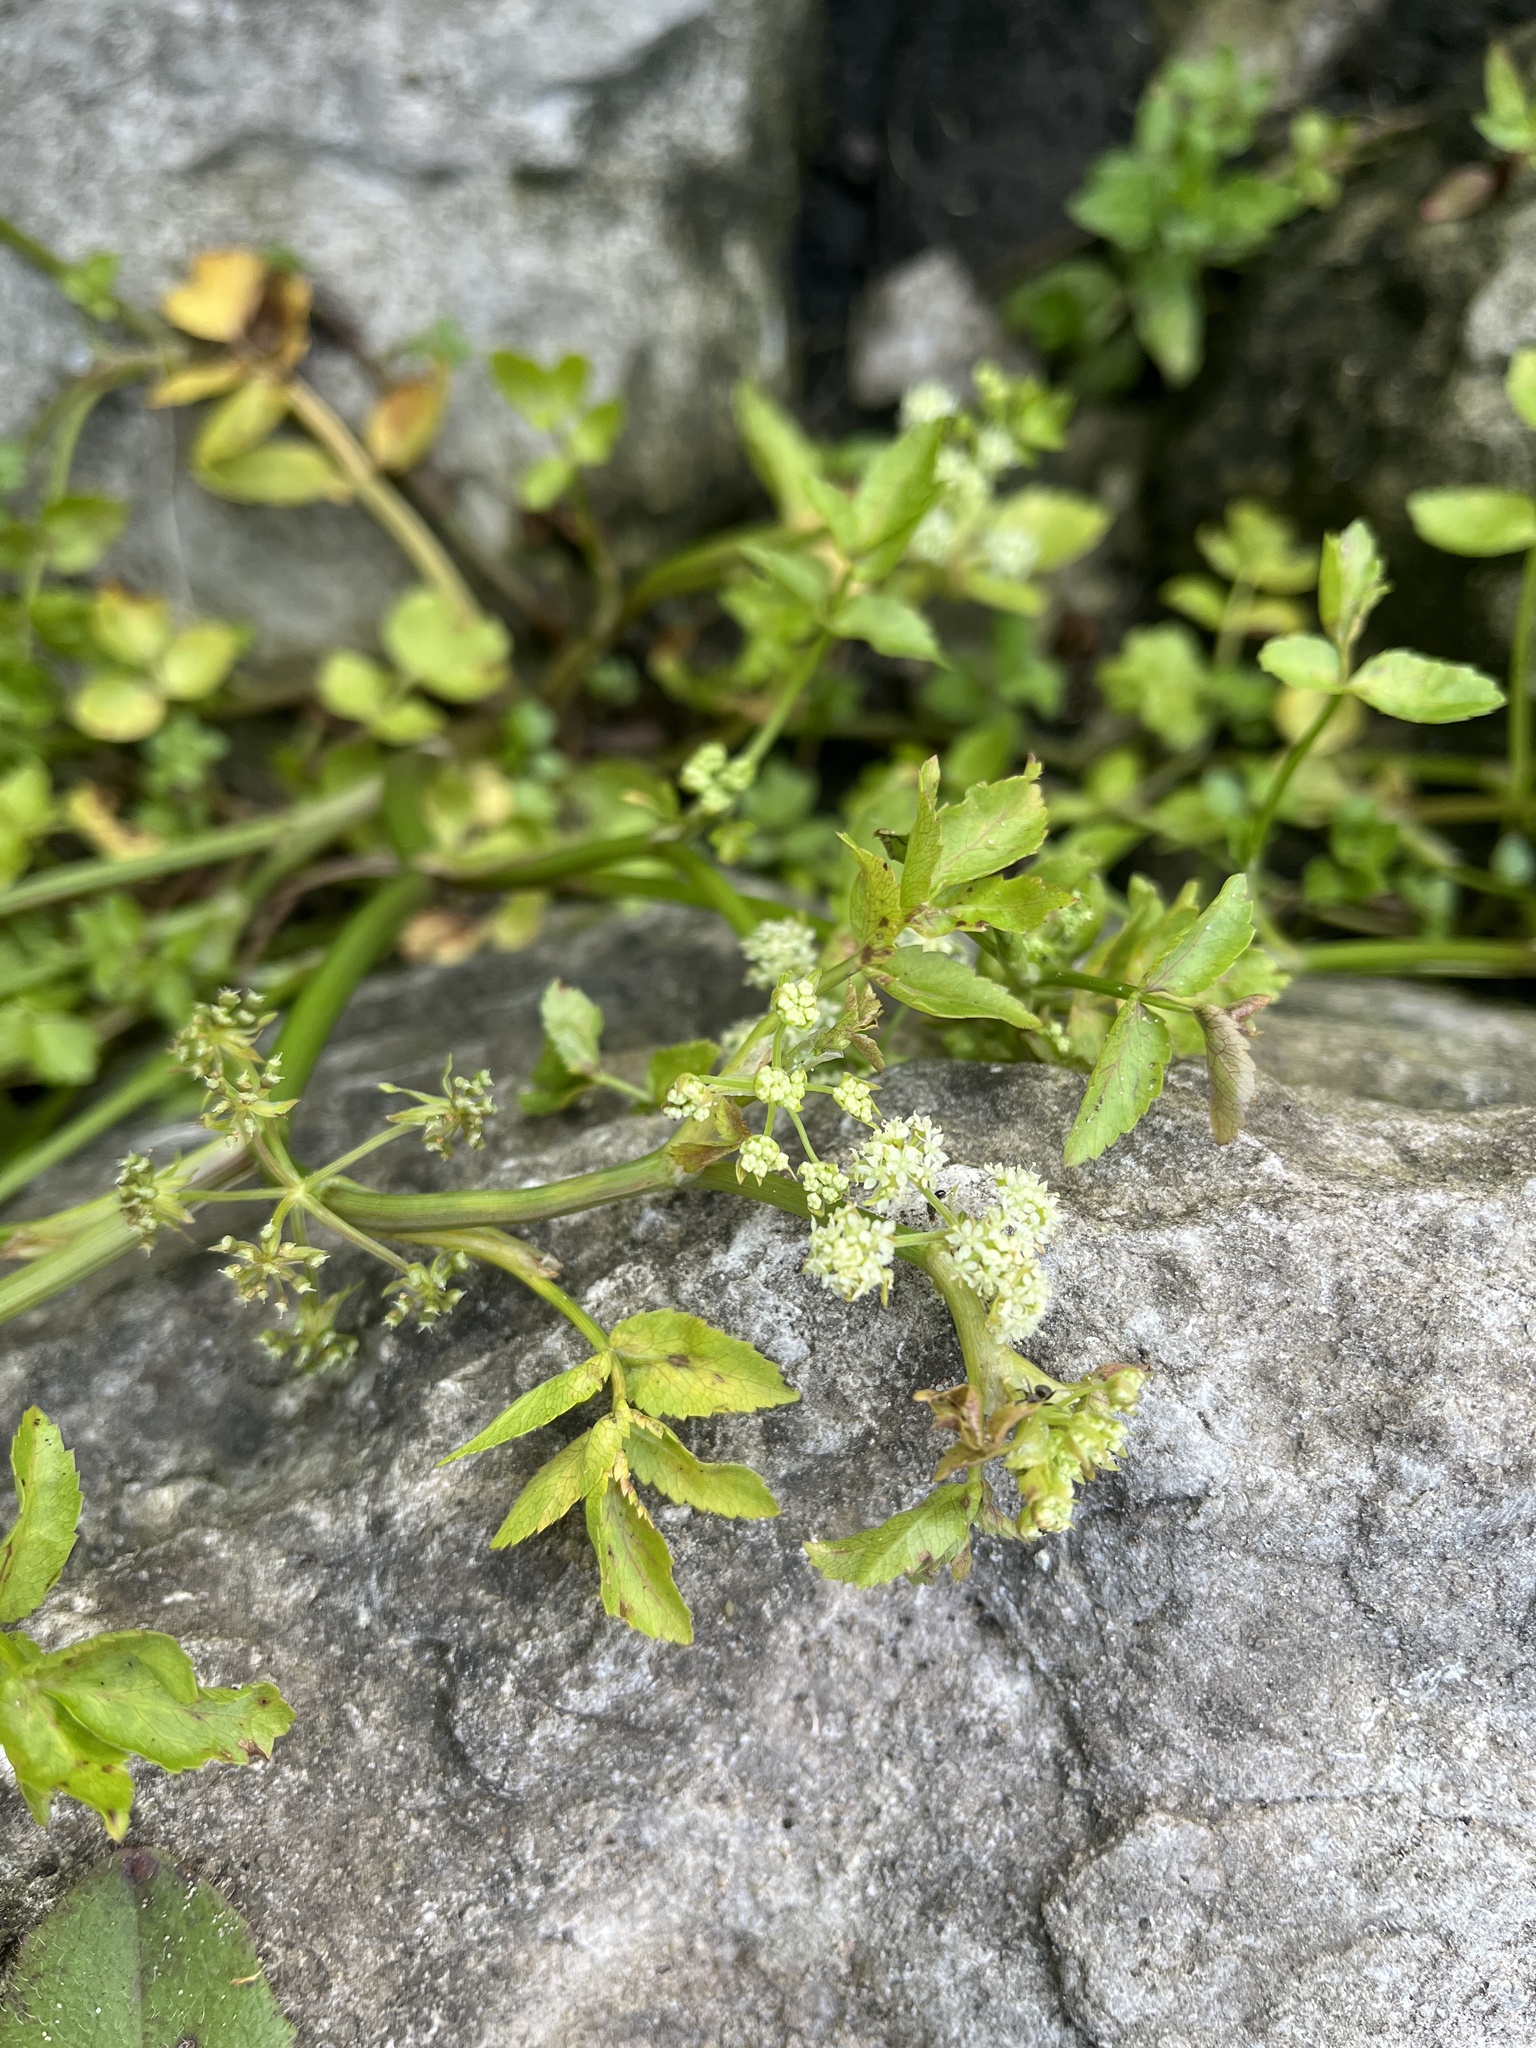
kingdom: Plantae
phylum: Tracheophyta
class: Magnoliopsida
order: Apiales
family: Apiaceae
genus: Helosciadium
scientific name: Helosciadium nodiflorum
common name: Fool's-watercress
